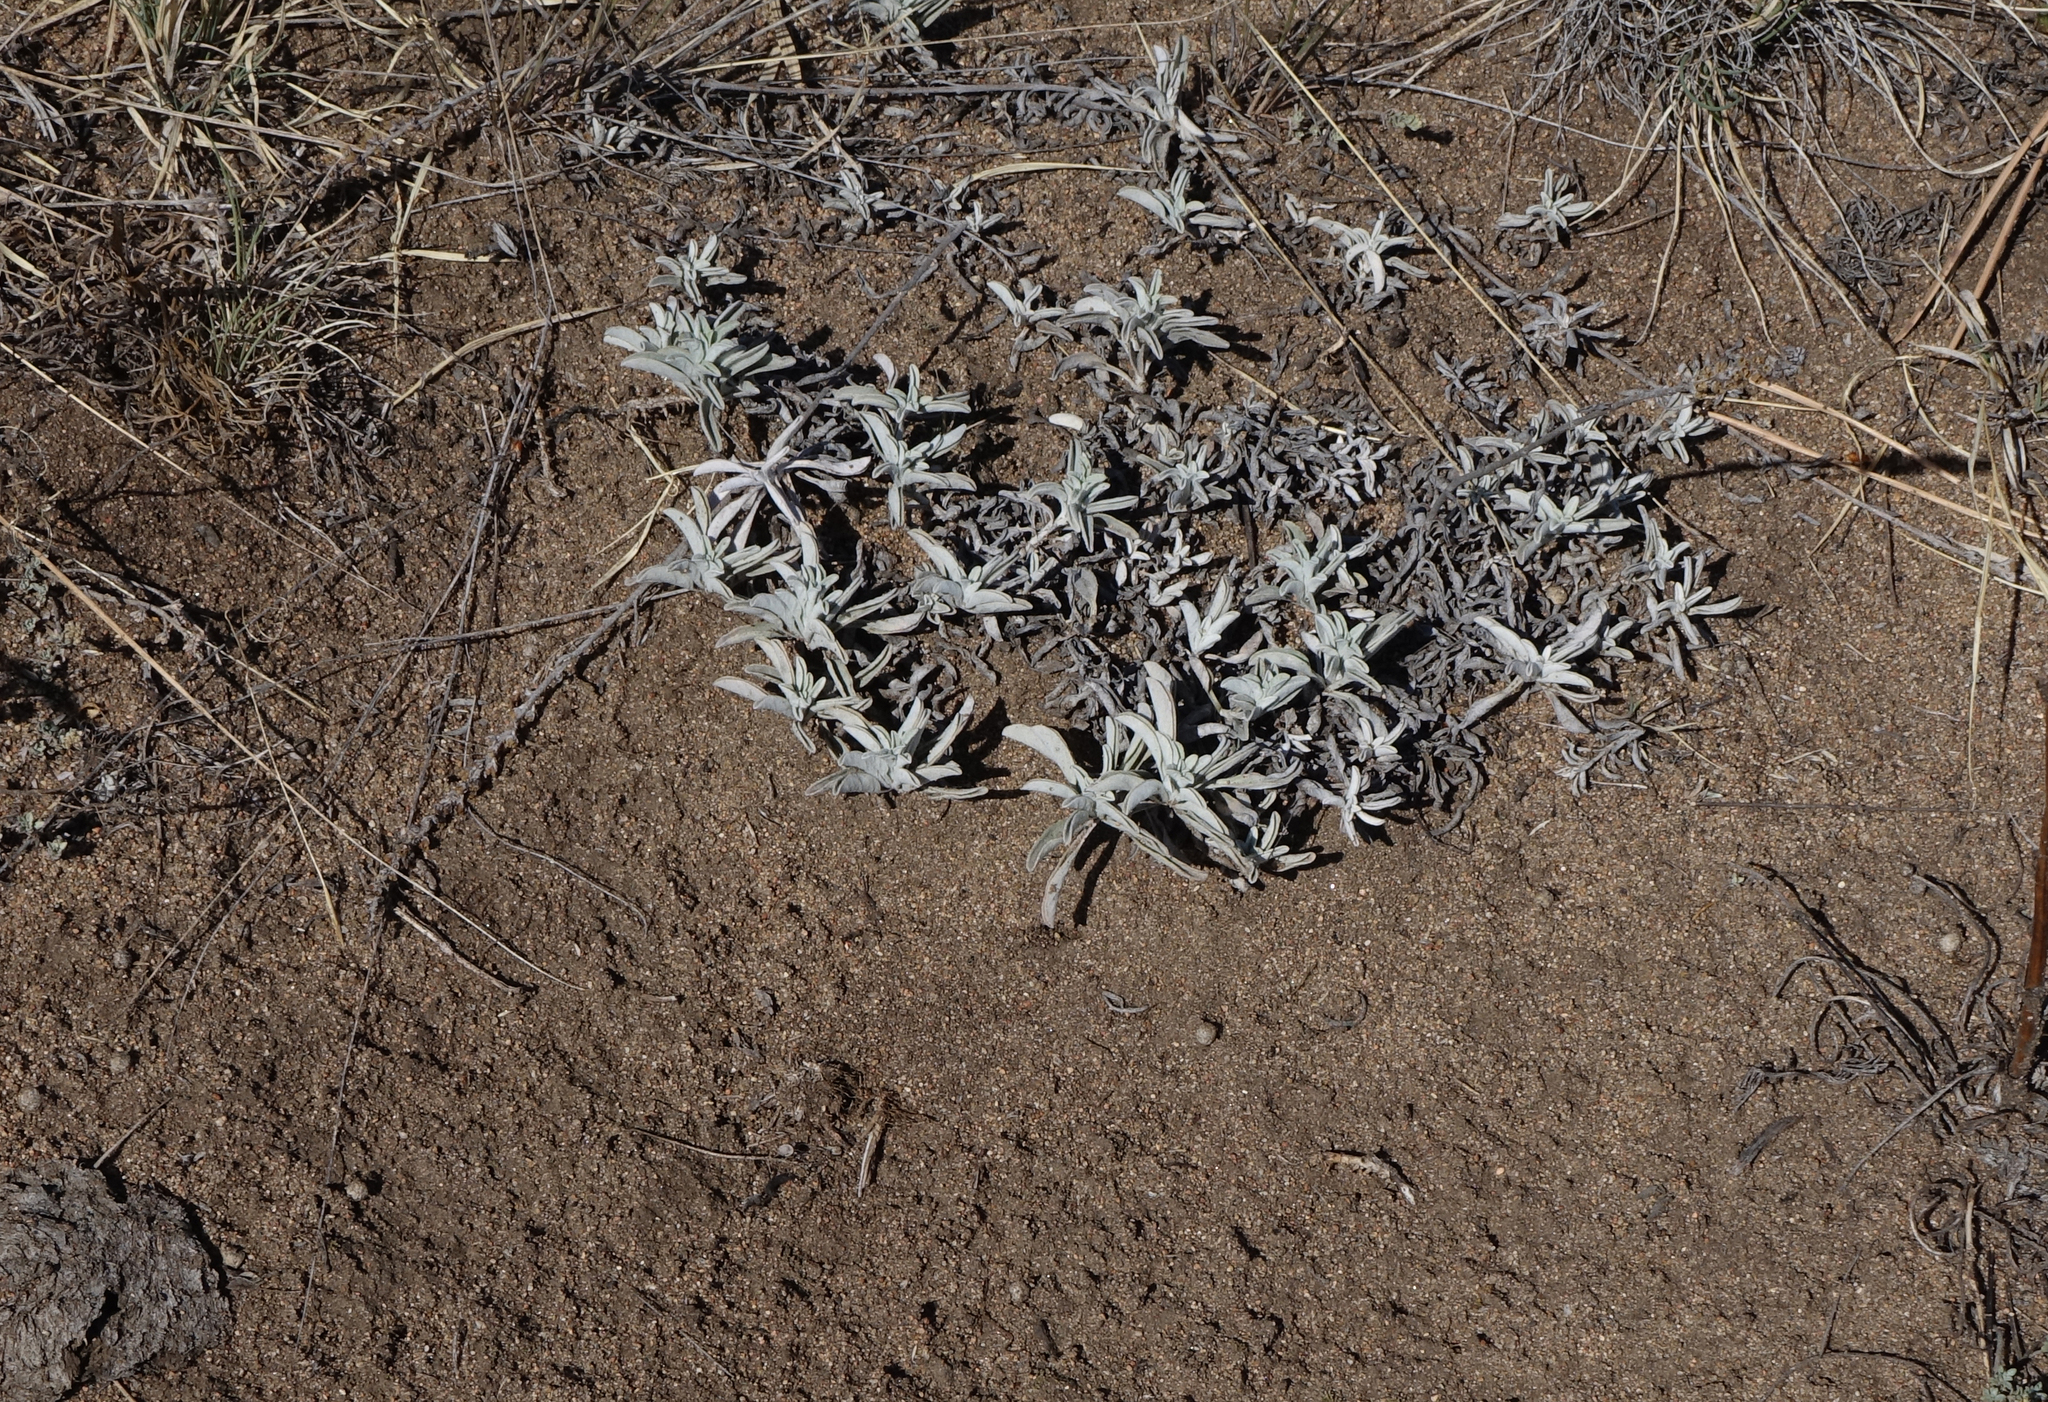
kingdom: Plantae
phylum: Tracheophyta
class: Magnoliopsida
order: Lamiales
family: Plantaginaceae
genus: Veronica
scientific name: Veronica incana
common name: Silver speedwell
